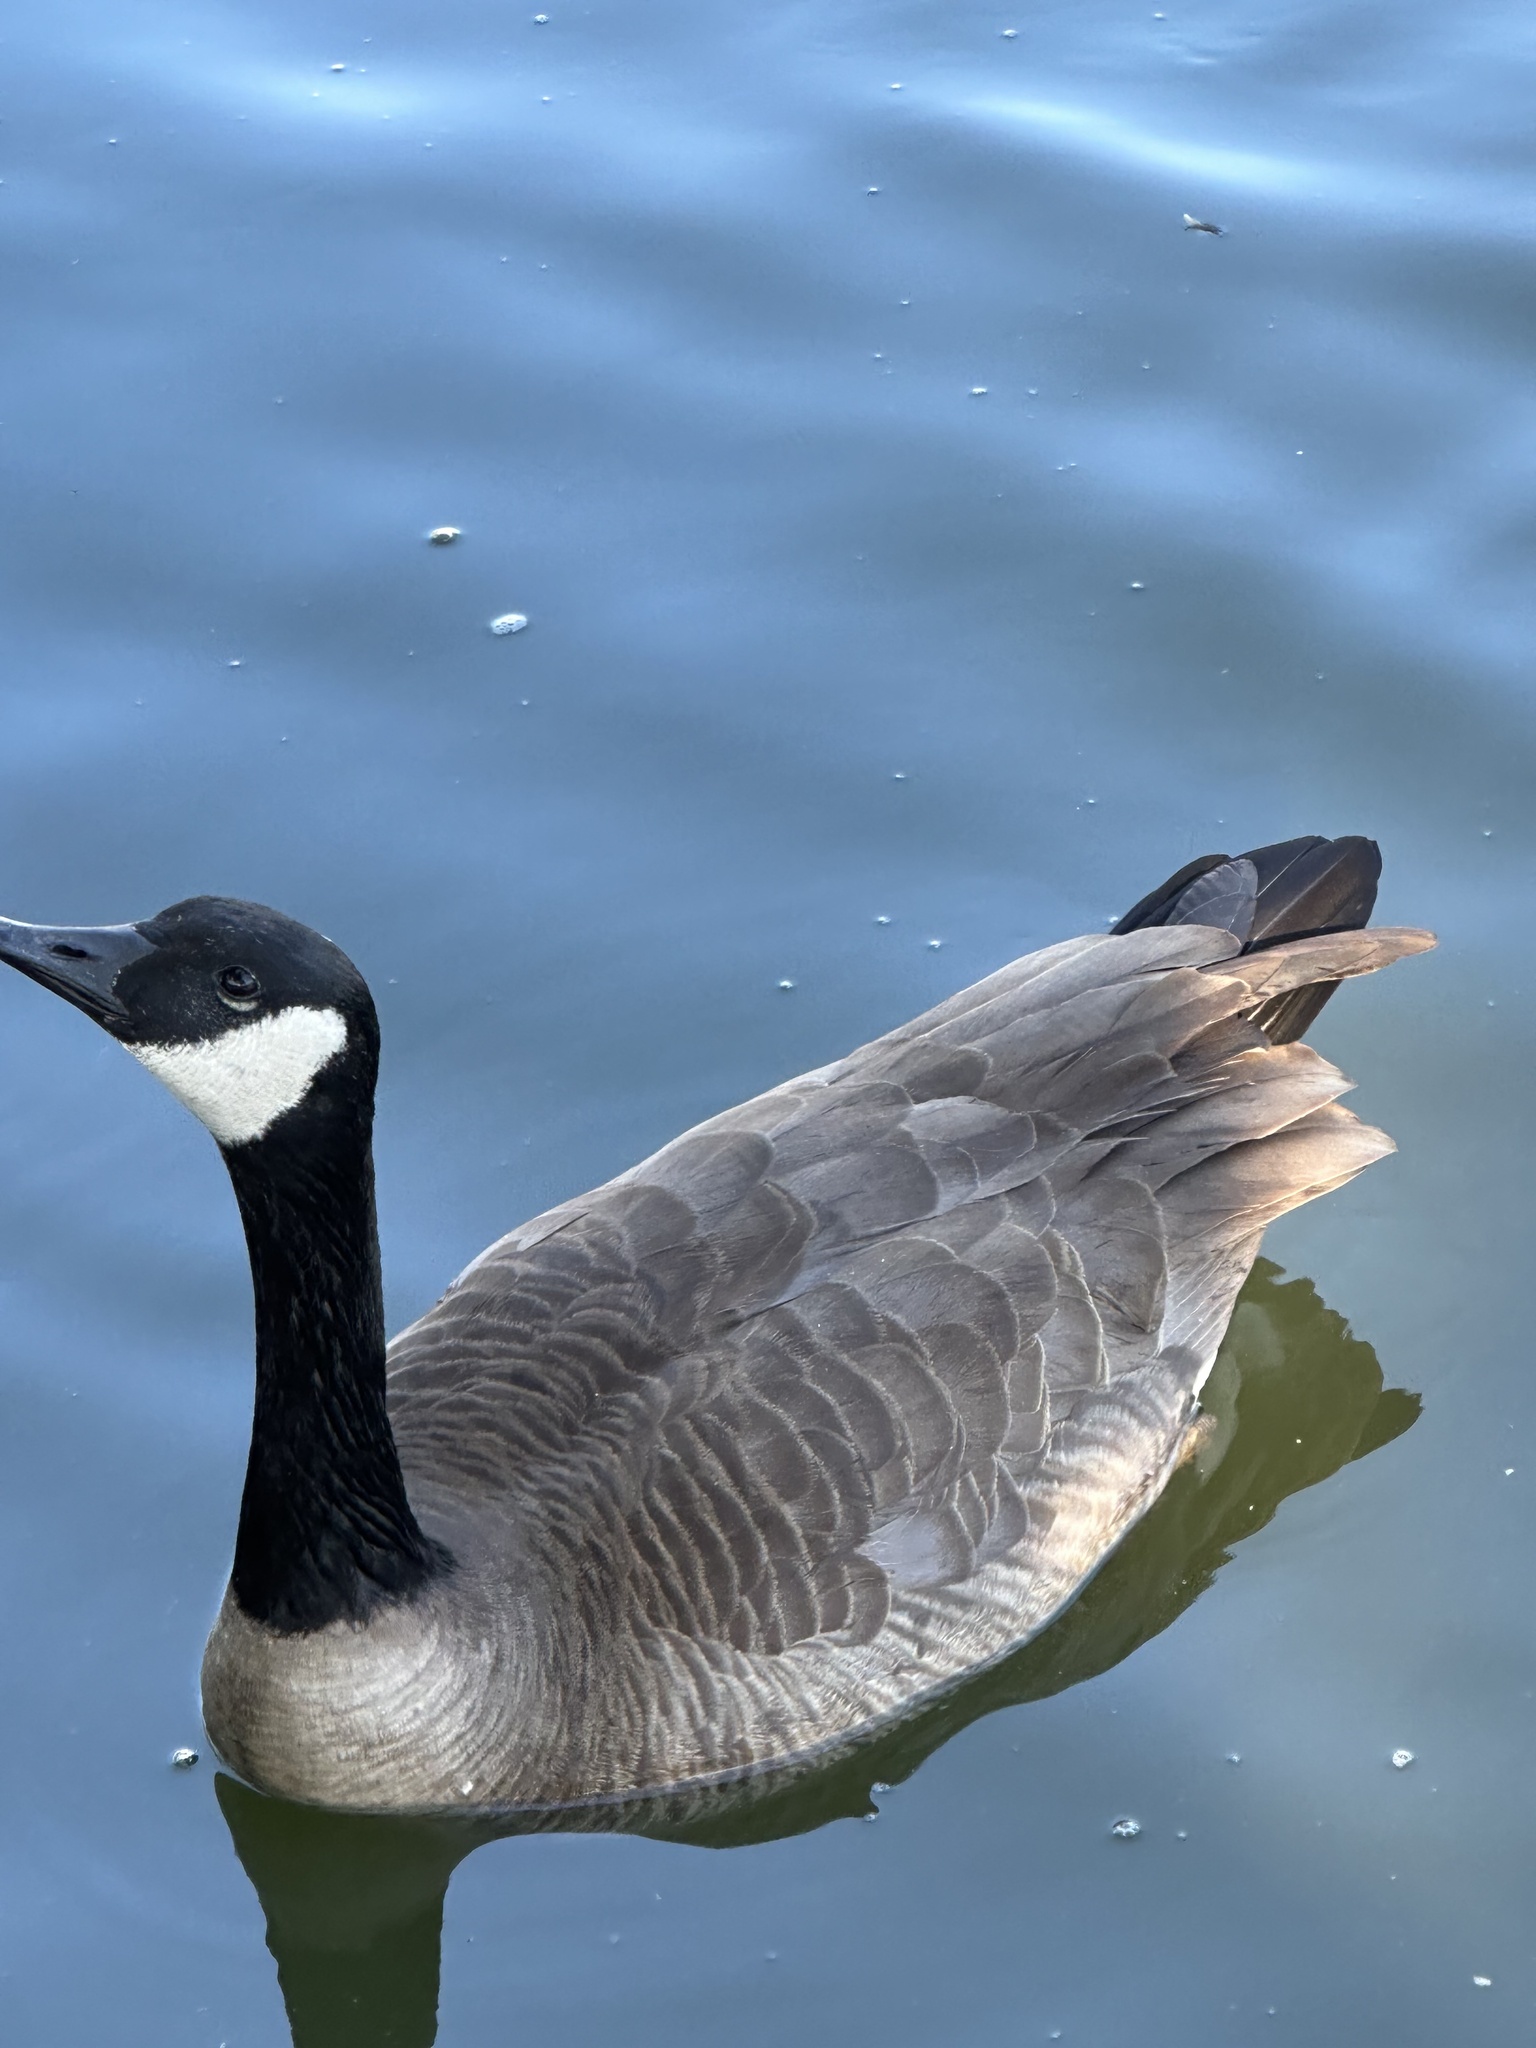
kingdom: Animalia
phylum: Chordata
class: Aves
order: Anseriformes
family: Anatidae
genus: Branta
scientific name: Branta canadensis
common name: Canada goose
